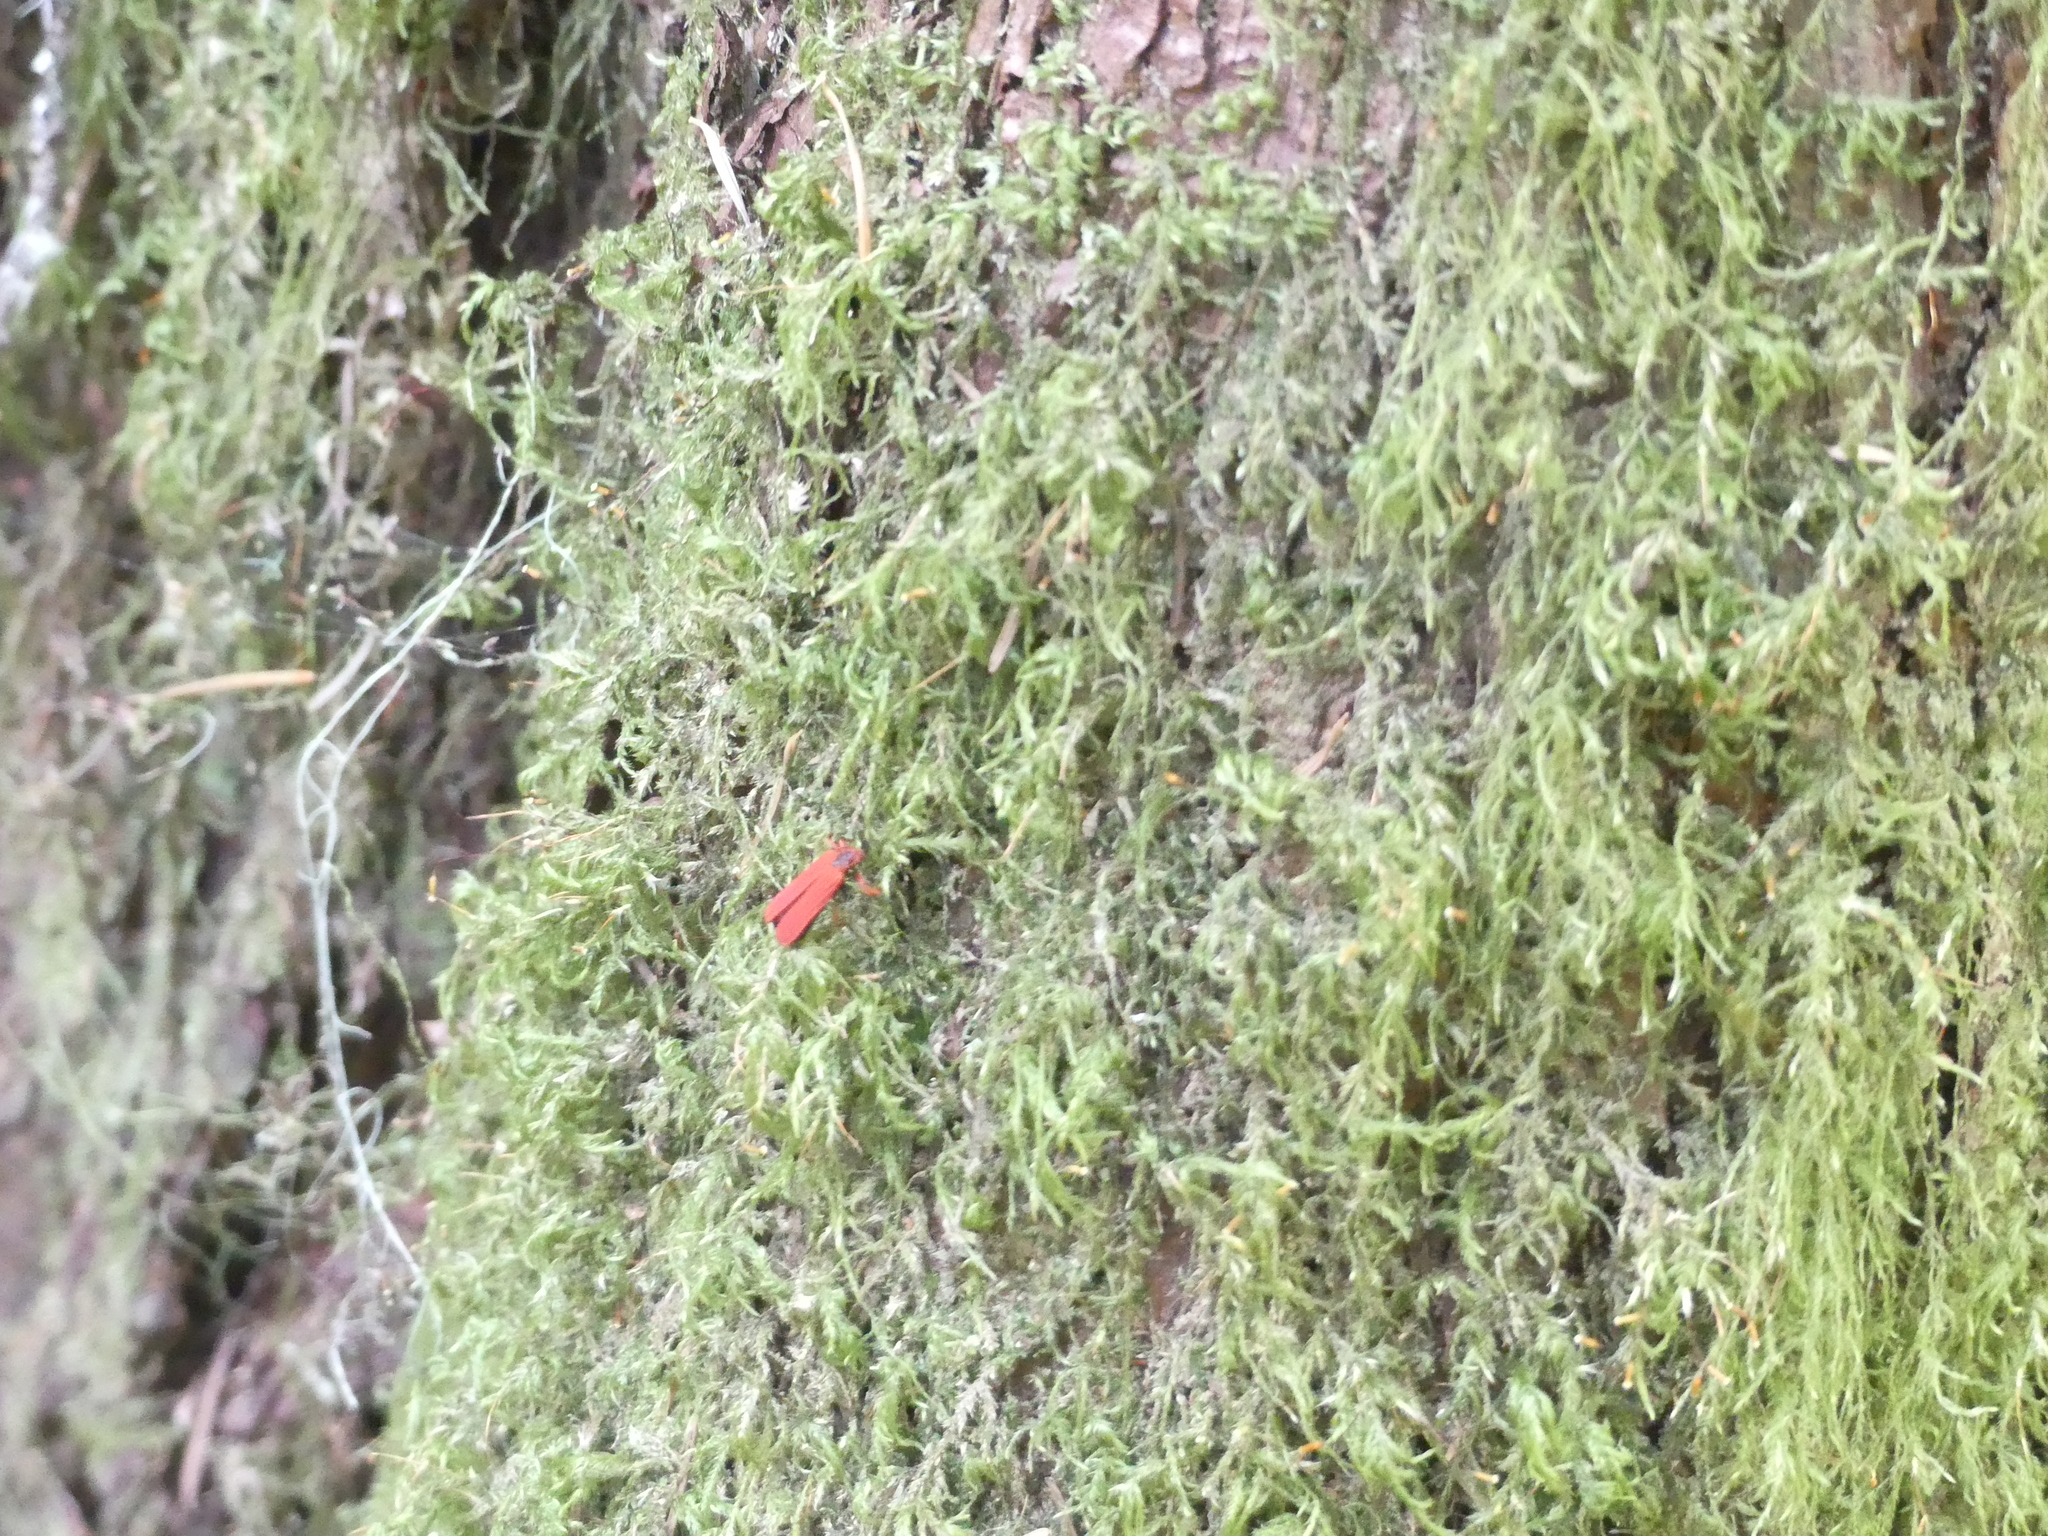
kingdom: Animalia
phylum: Arthropoda
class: Insecta
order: Coleoptera
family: Lycidae
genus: Dictyoptera
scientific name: Dictyoptera simplicipes
